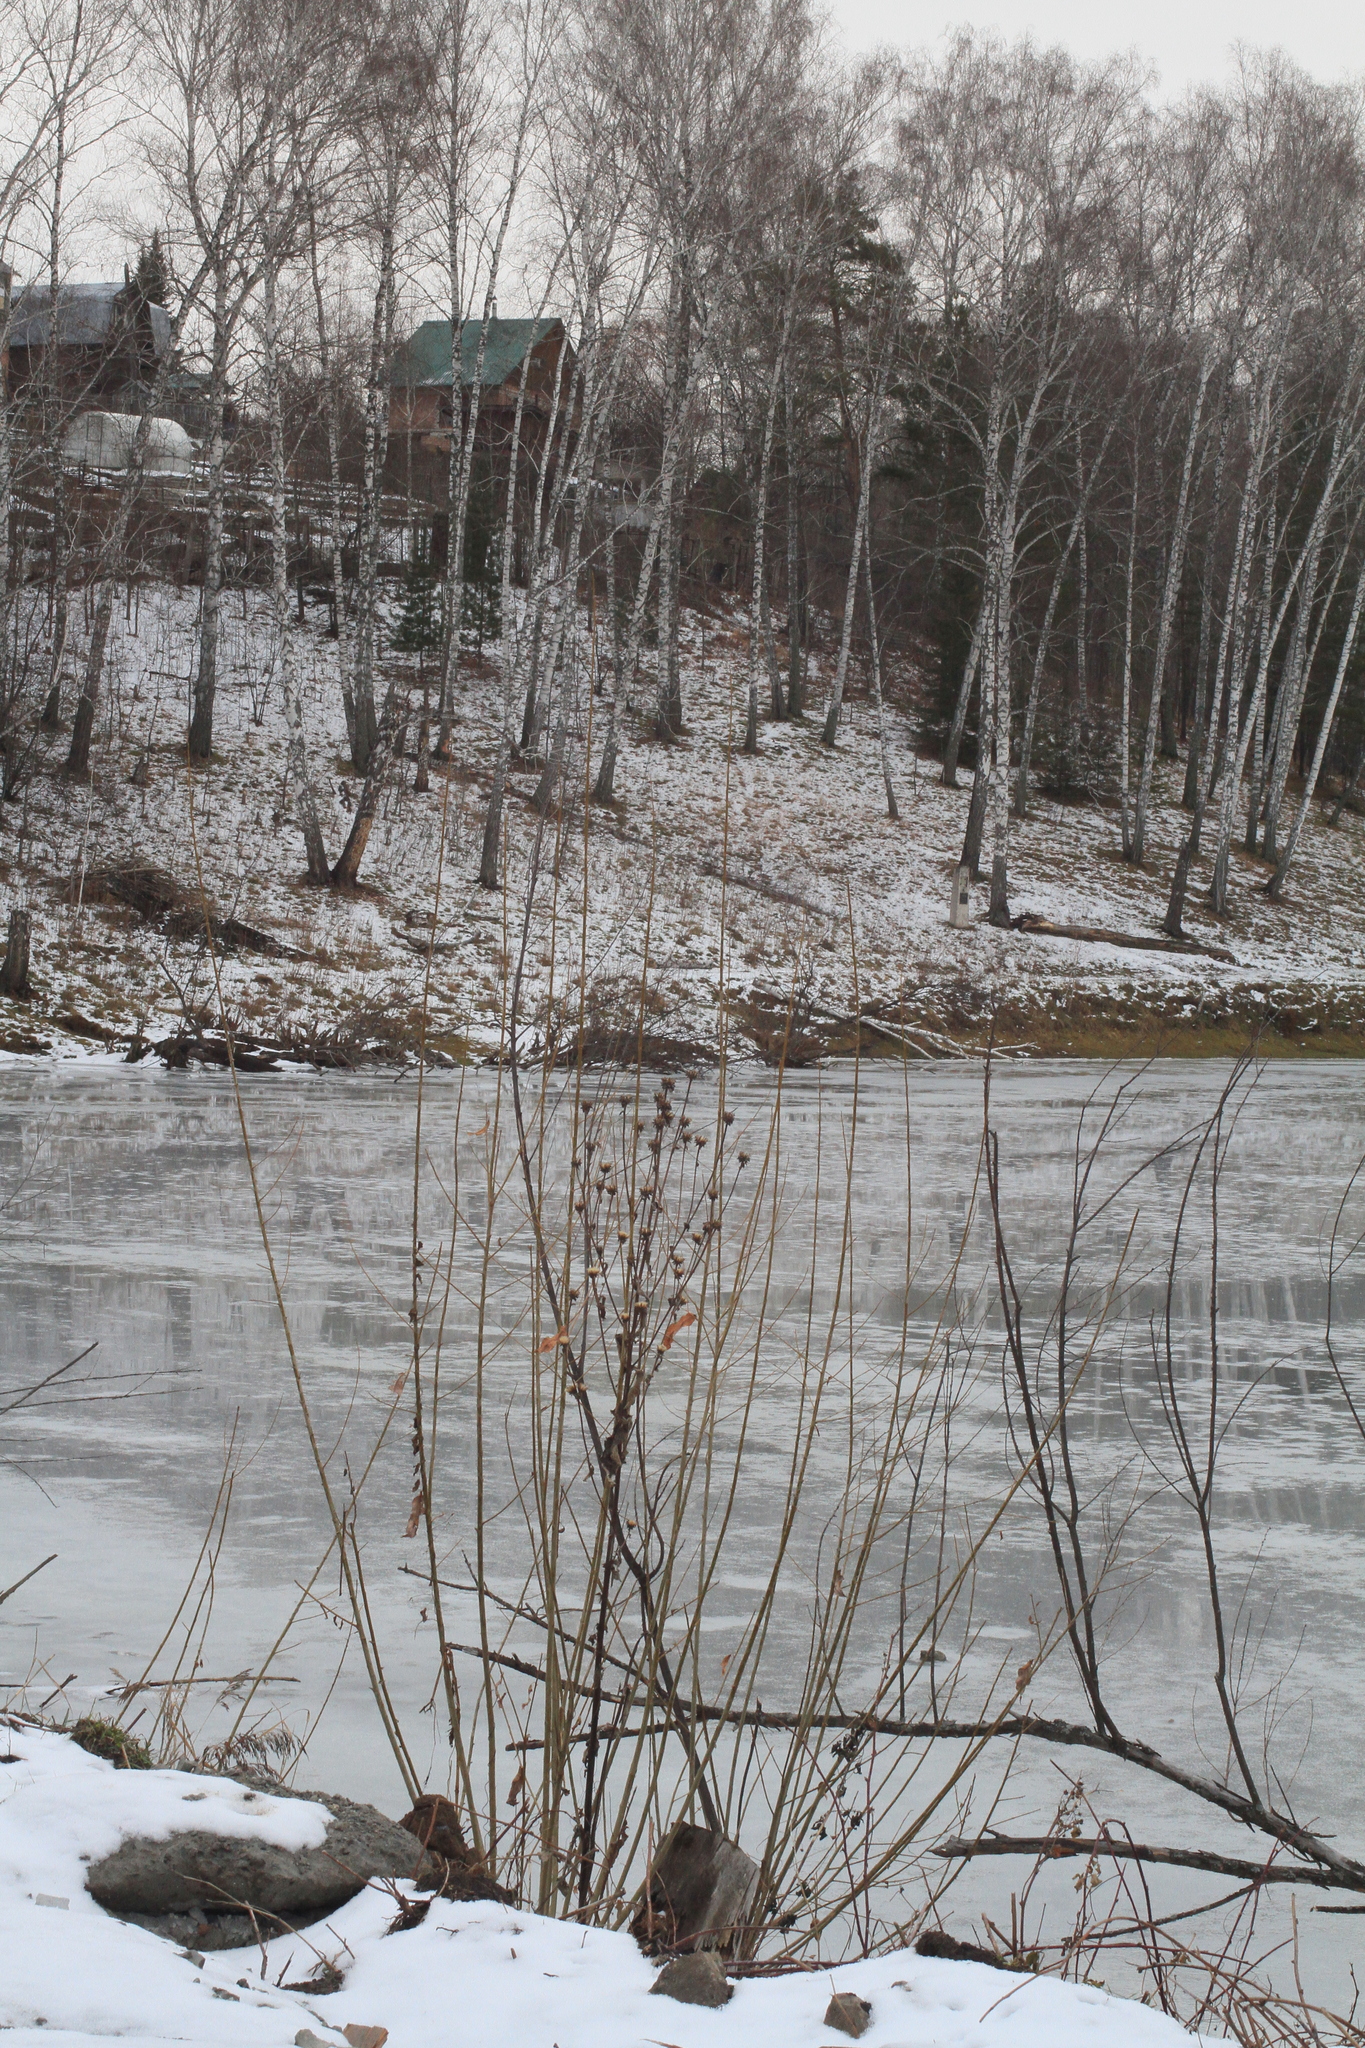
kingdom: Plantae
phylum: Tracheophyta
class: Magnoliopsida
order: Asterales
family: Asteraceae
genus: Inula
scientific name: Inula helenium
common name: Elecampane
